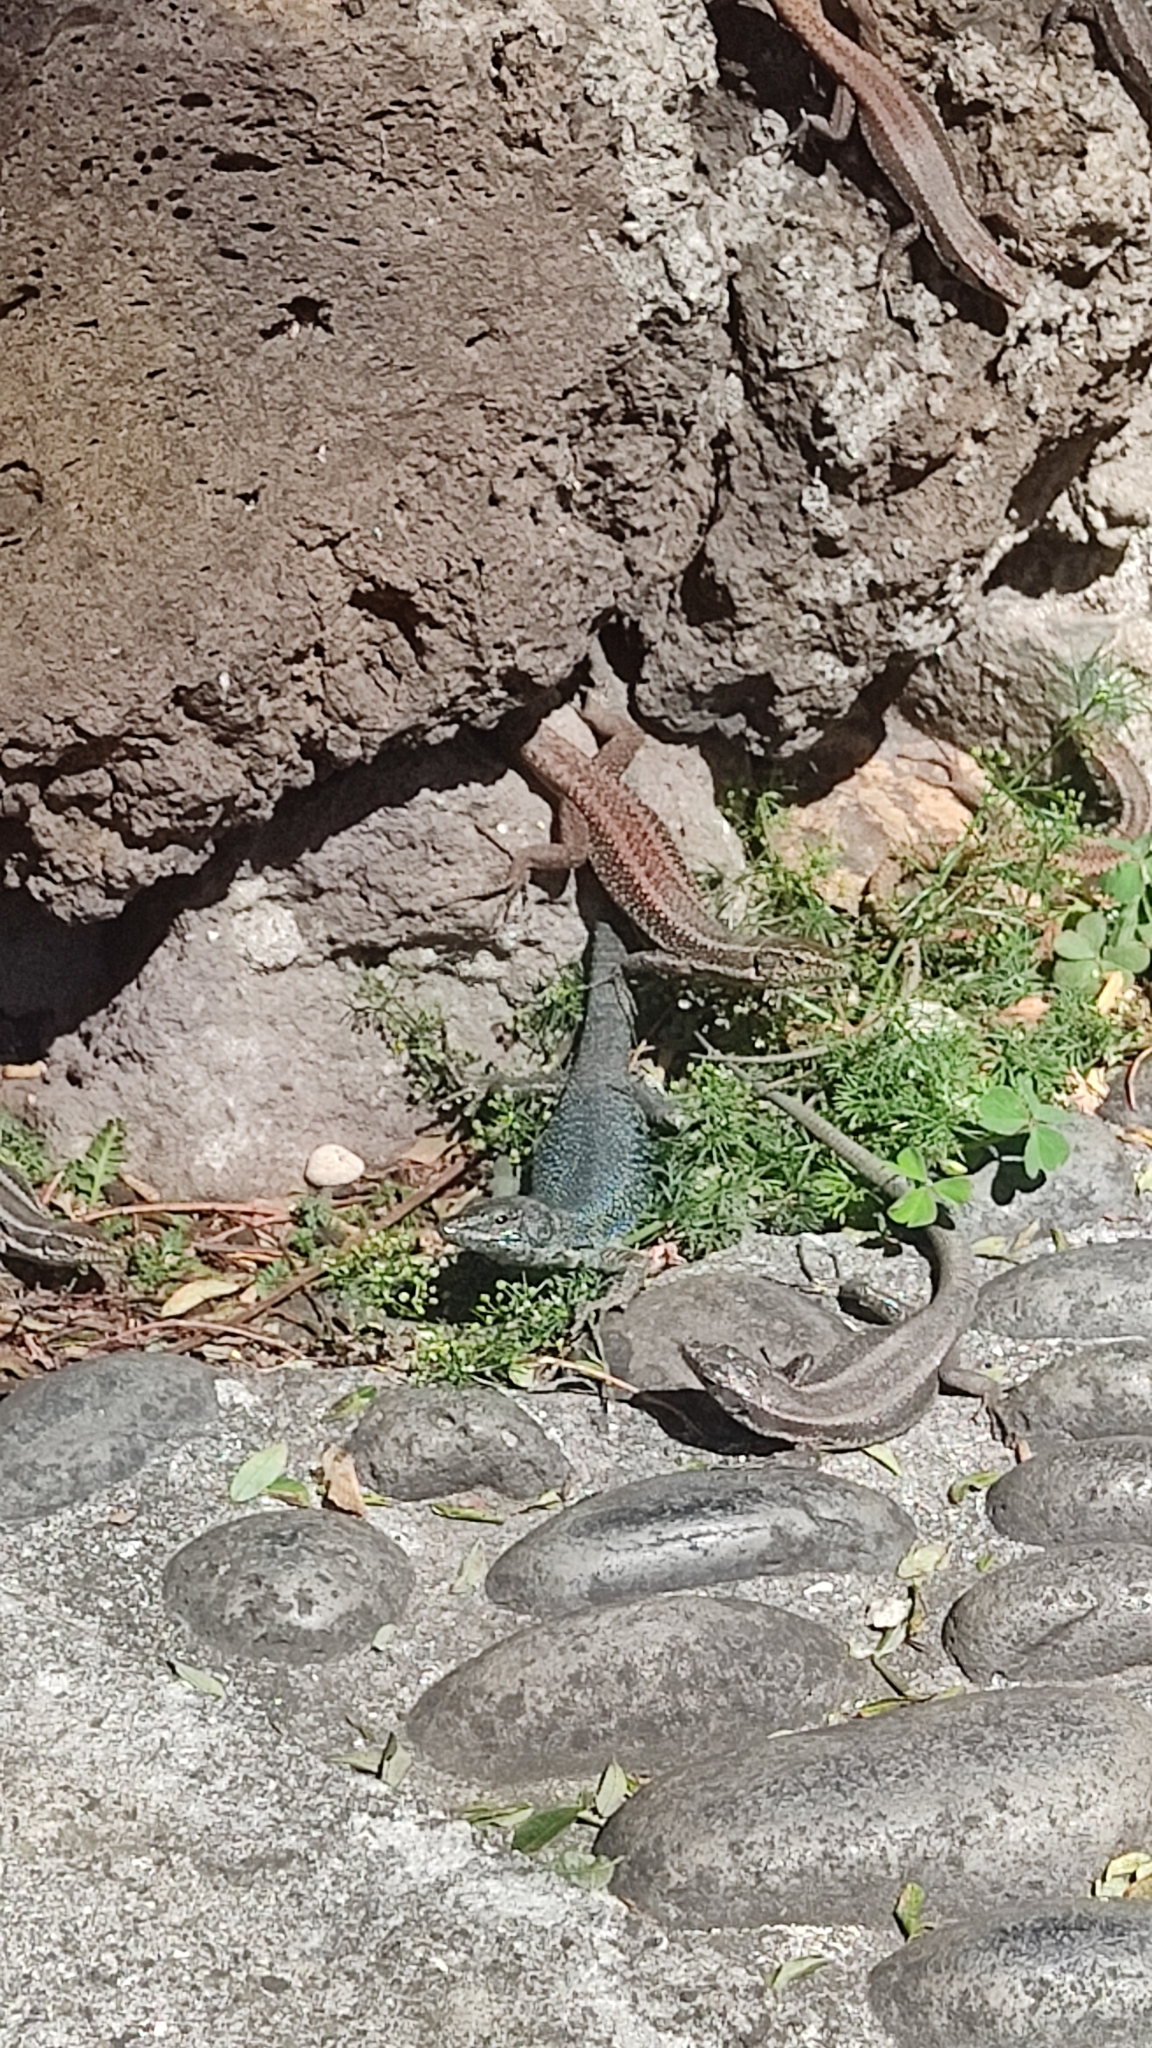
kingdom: Animalia
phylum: Chordata
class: Squamata
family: Lacertidae
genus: Teira
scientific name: Teira dugesii
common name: Madeira lizard
